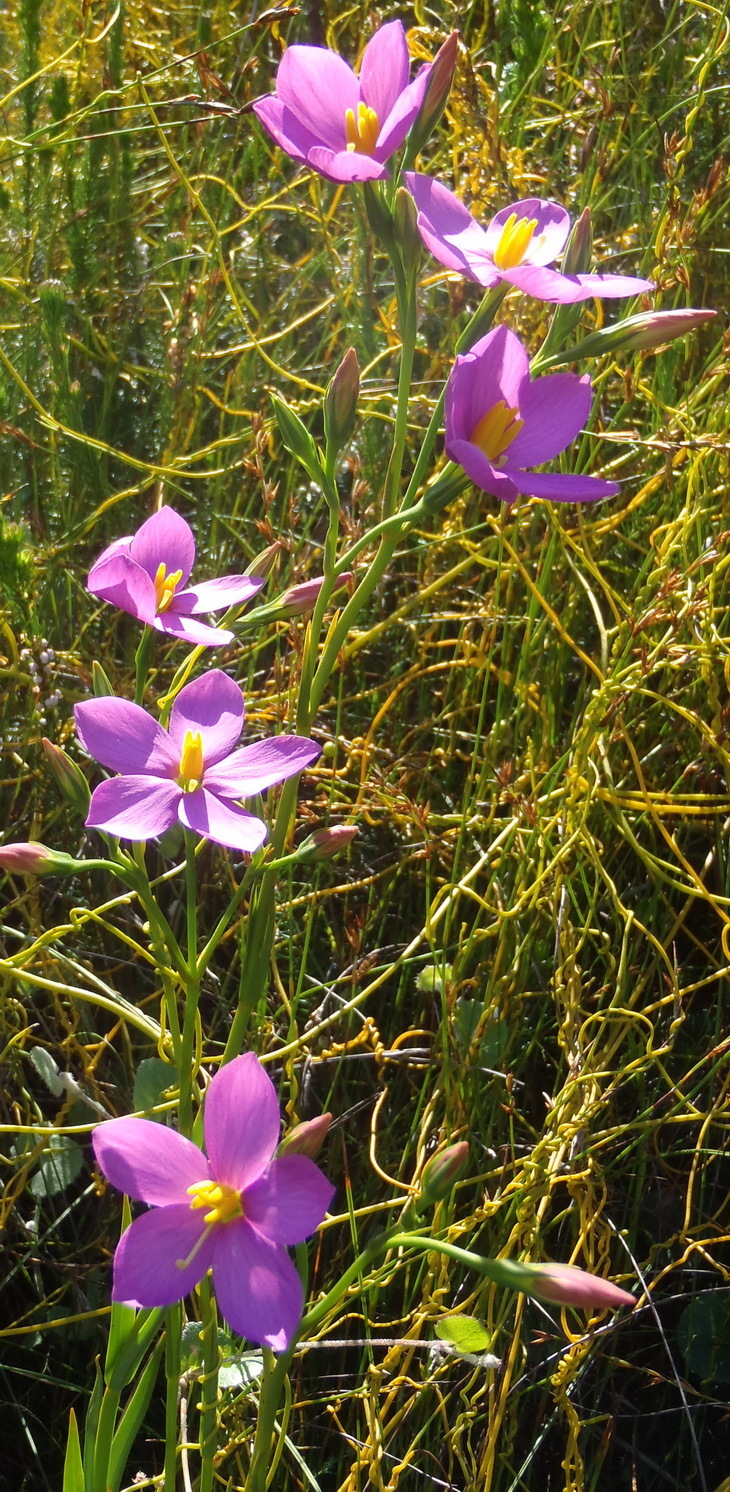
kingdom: Plantae
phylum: Tracheophyta
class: Magnoliopsida
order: Gentianales
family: Gentianaceae
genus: Chironia
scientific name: Chironia linoides
